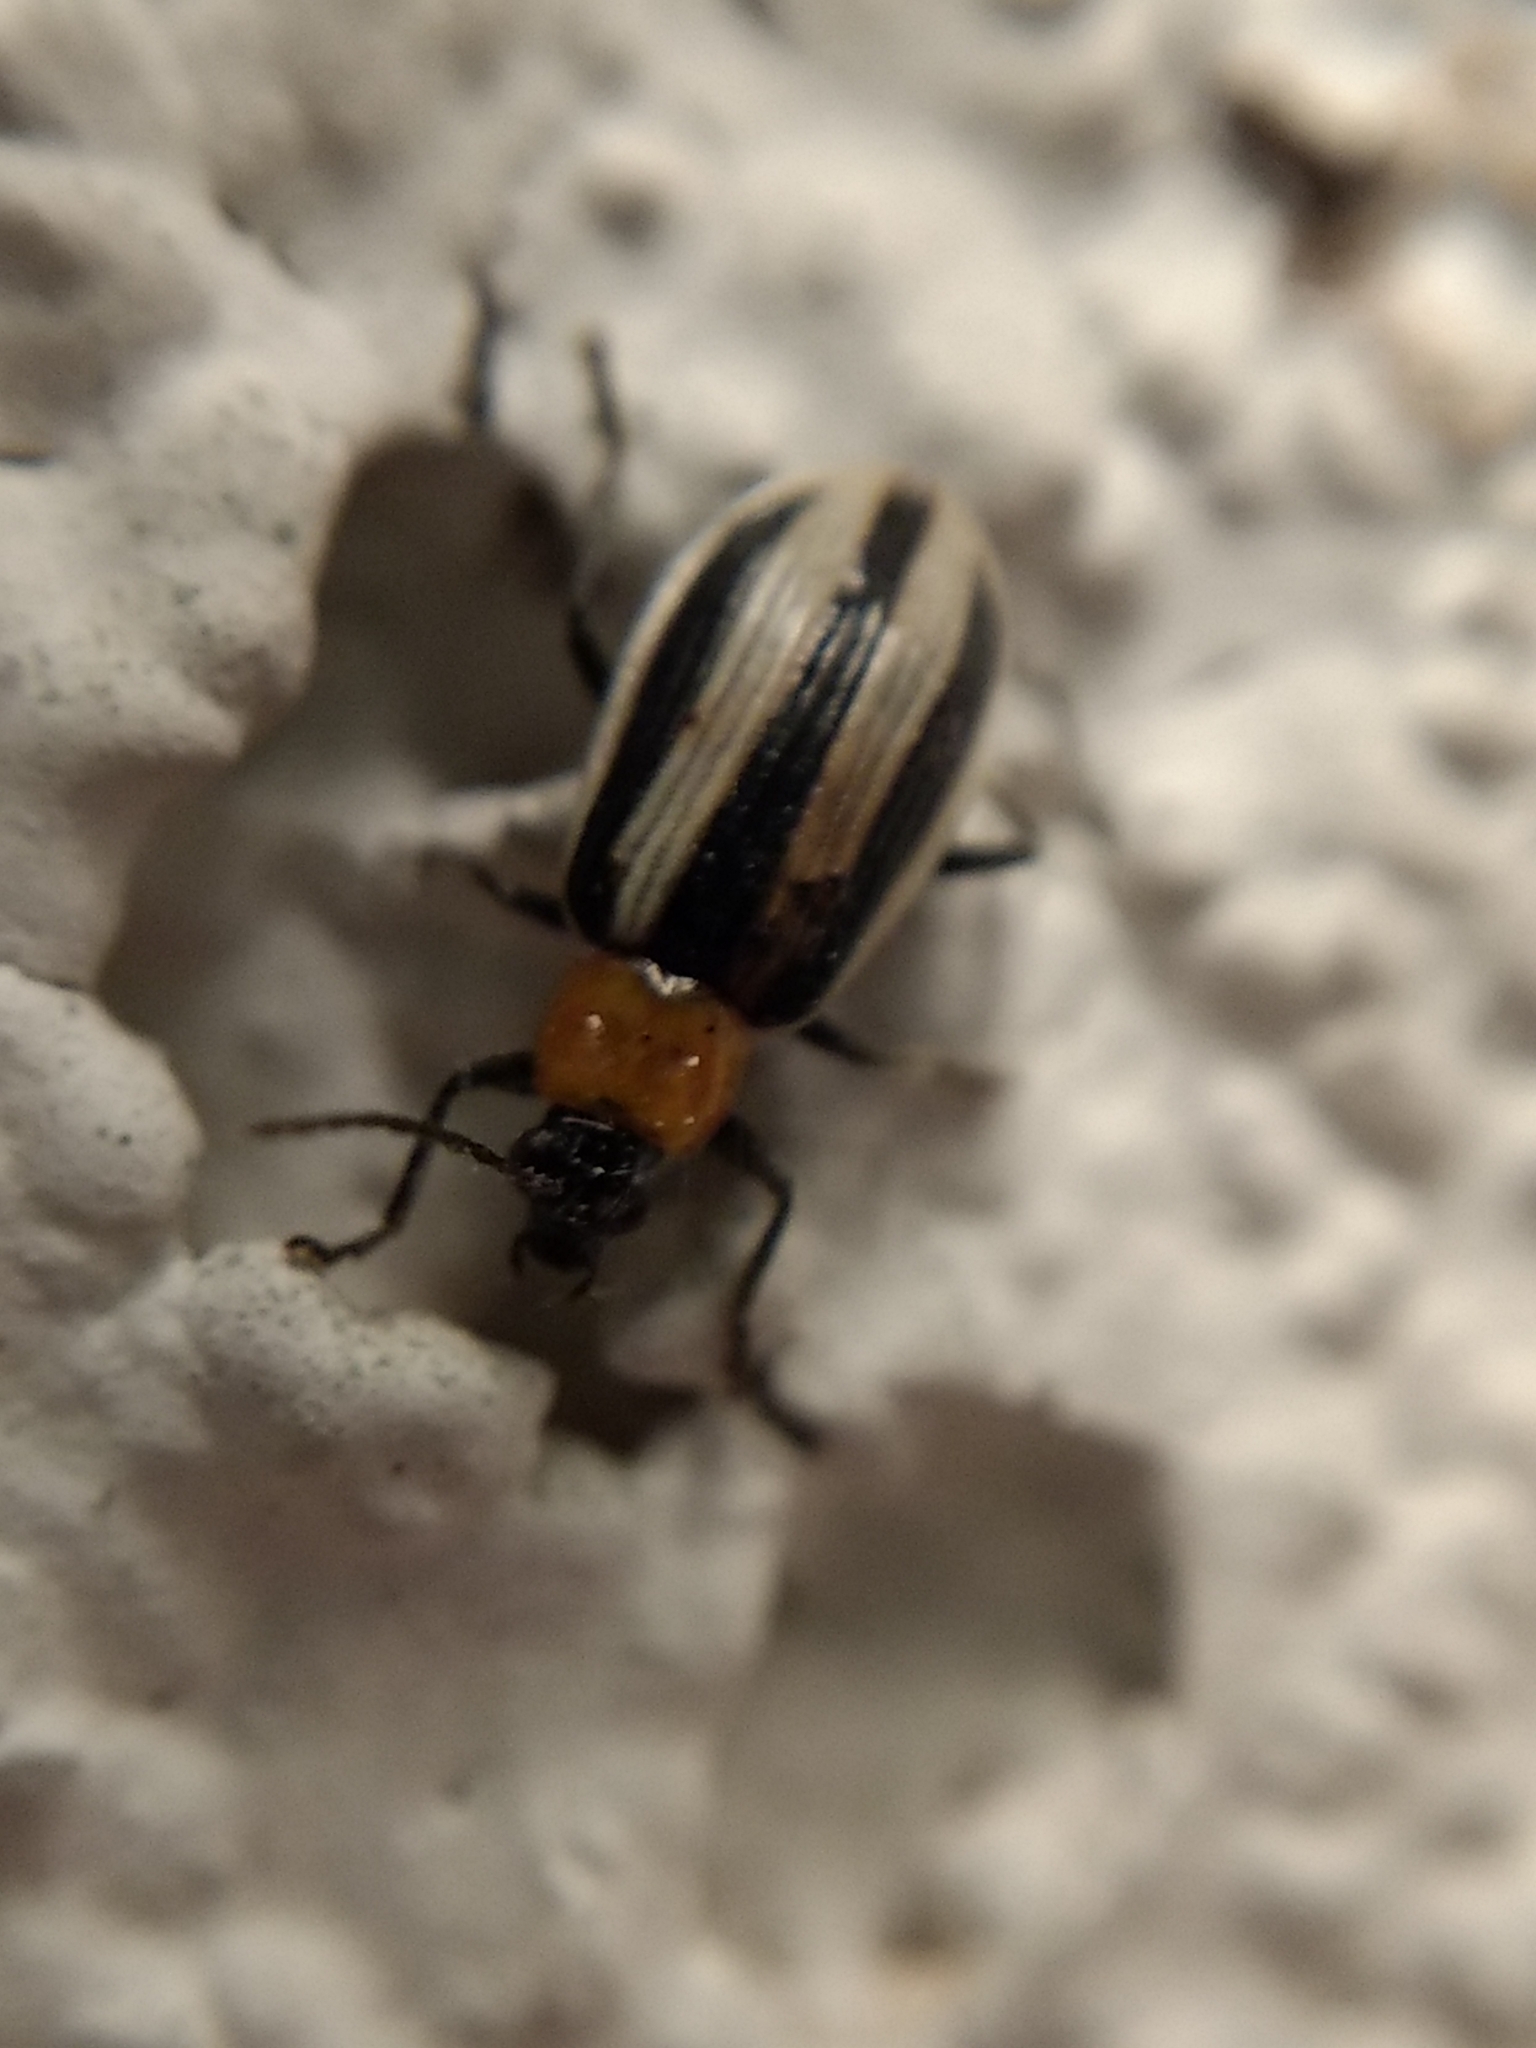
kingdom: Animalia
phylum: Arthropoda
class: Insecta
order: Coleoptera
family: Chrysomelidae
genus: Acalymma
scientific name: Acalymma trivittatum
